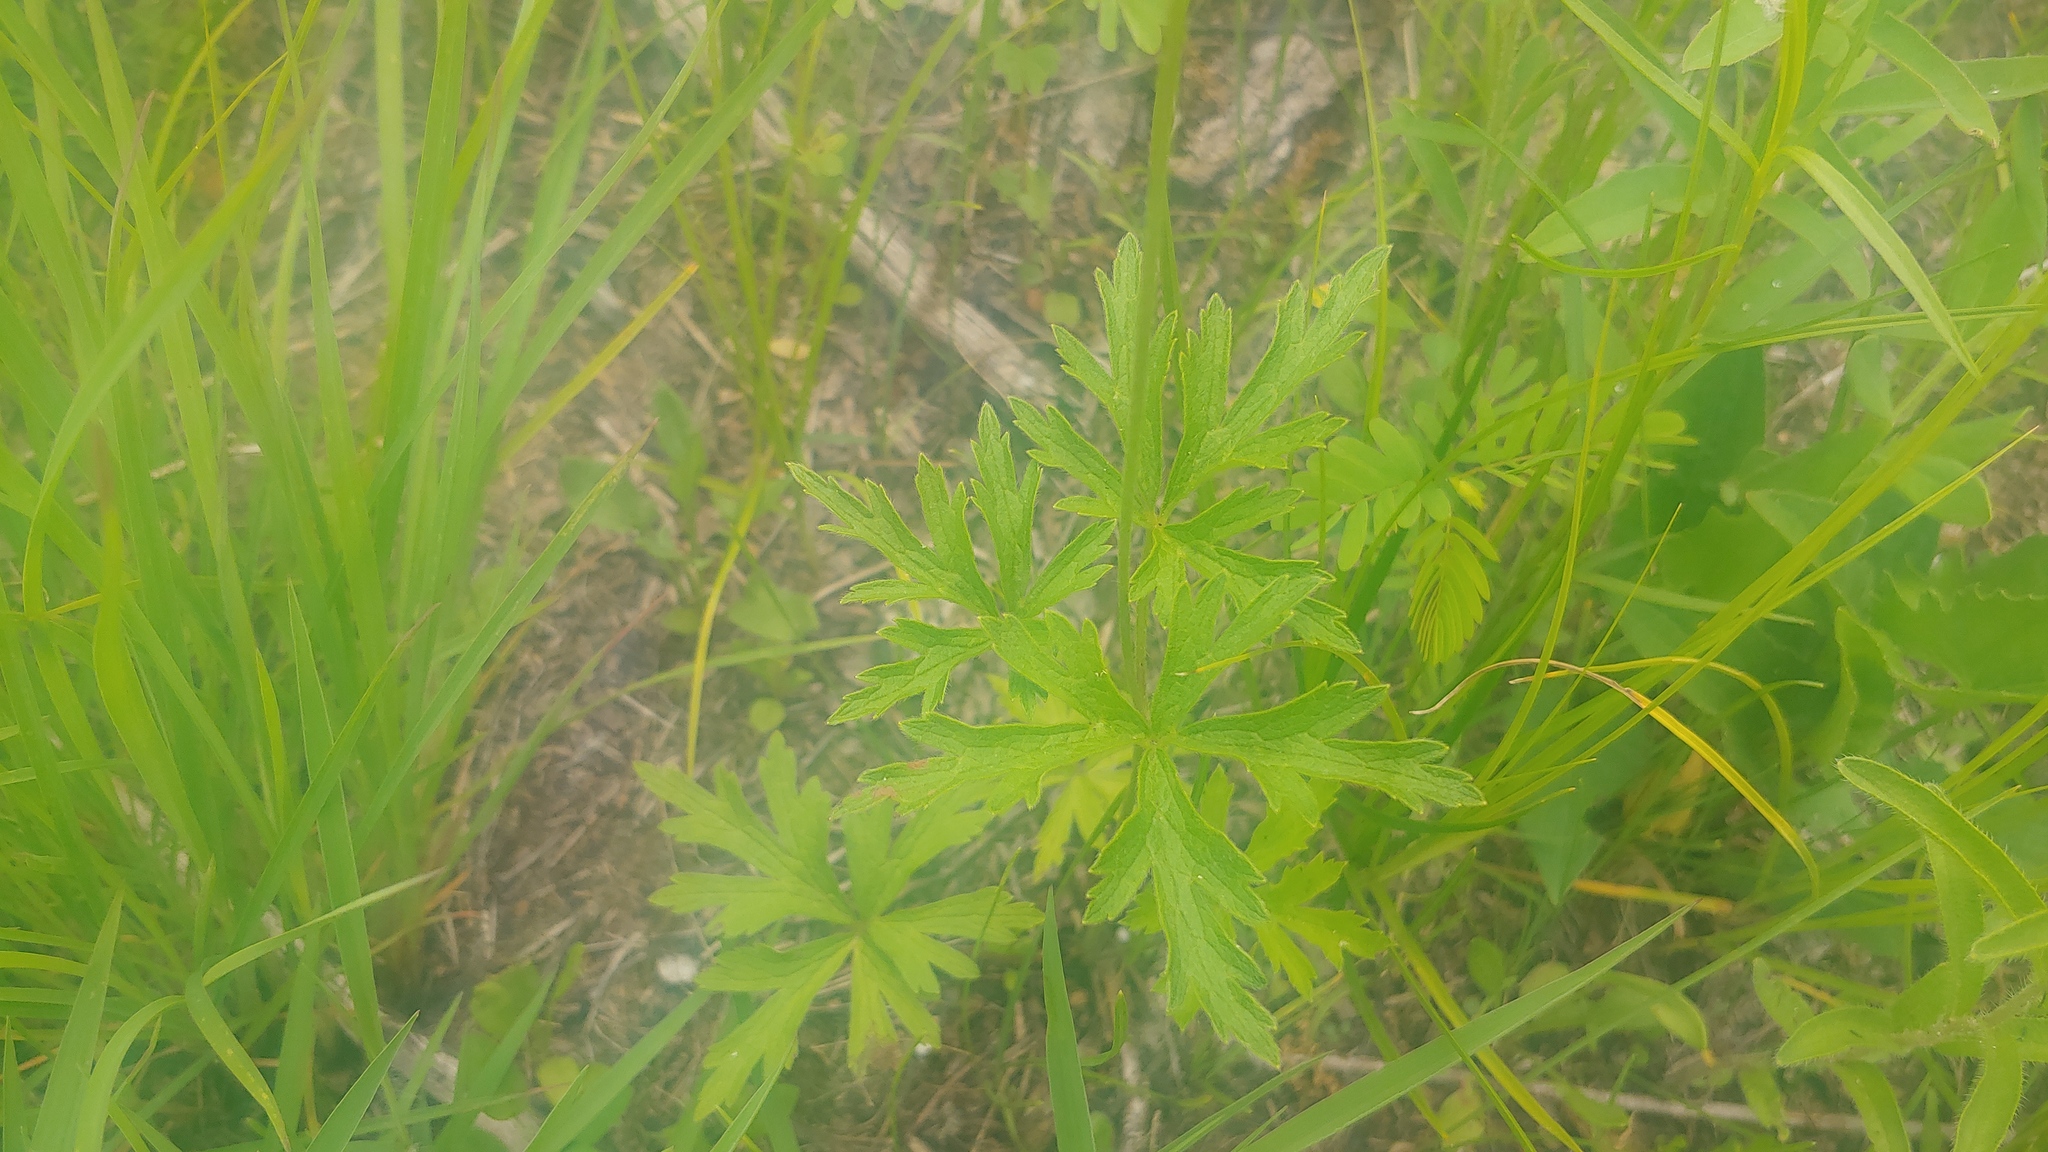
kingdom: Plantae
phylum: Tracheophyta
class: Magnoliopsida
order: Ranunculales
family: Ranunculaceae
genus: Anemone
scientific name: Anemone cylindrica
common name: Candle anemone
